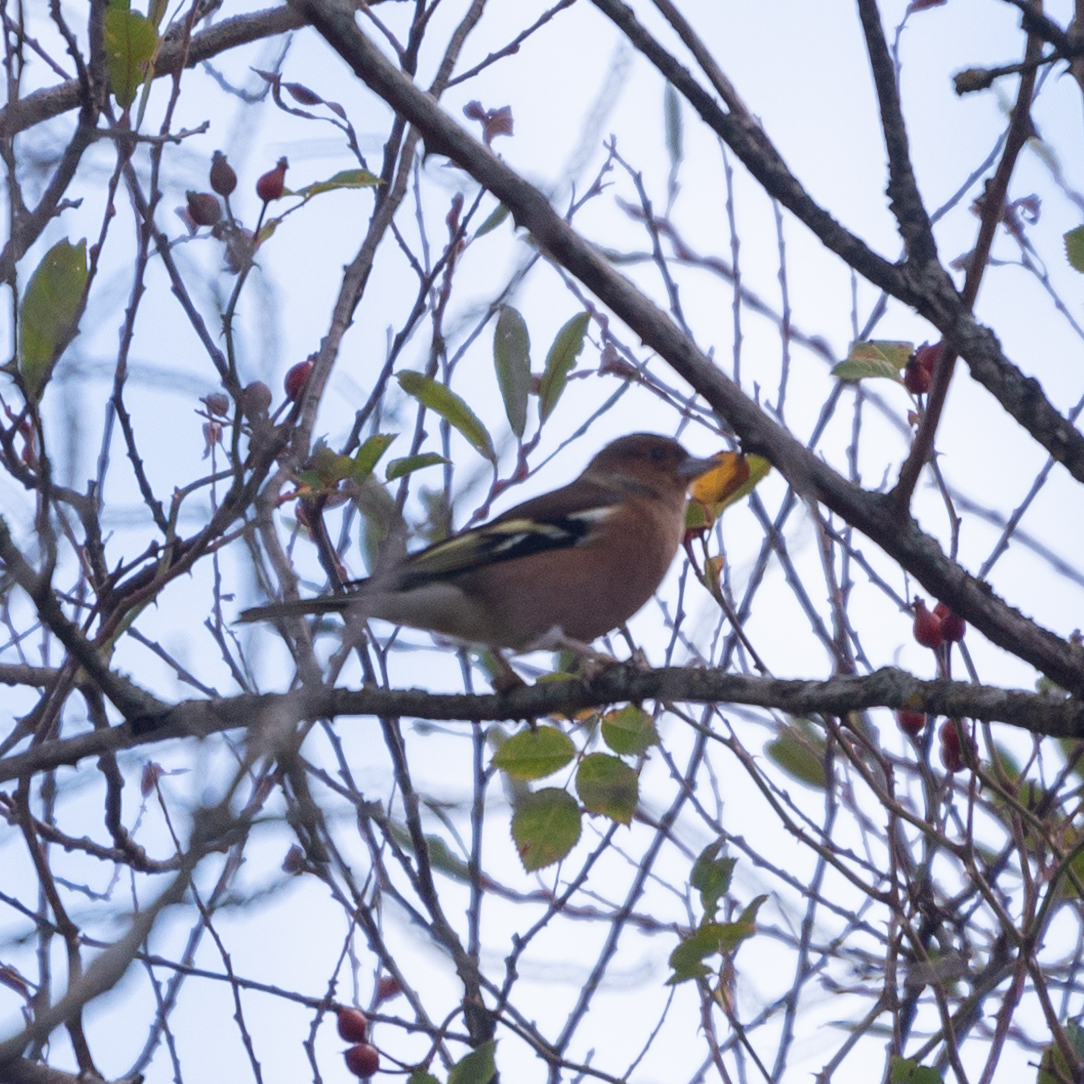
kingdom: Animalia
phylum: Chordata
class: Aves
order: Passeriformes
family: Fringillidae
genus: Fringilla
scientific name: Fringilla coelebs
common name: Common chaffinch
